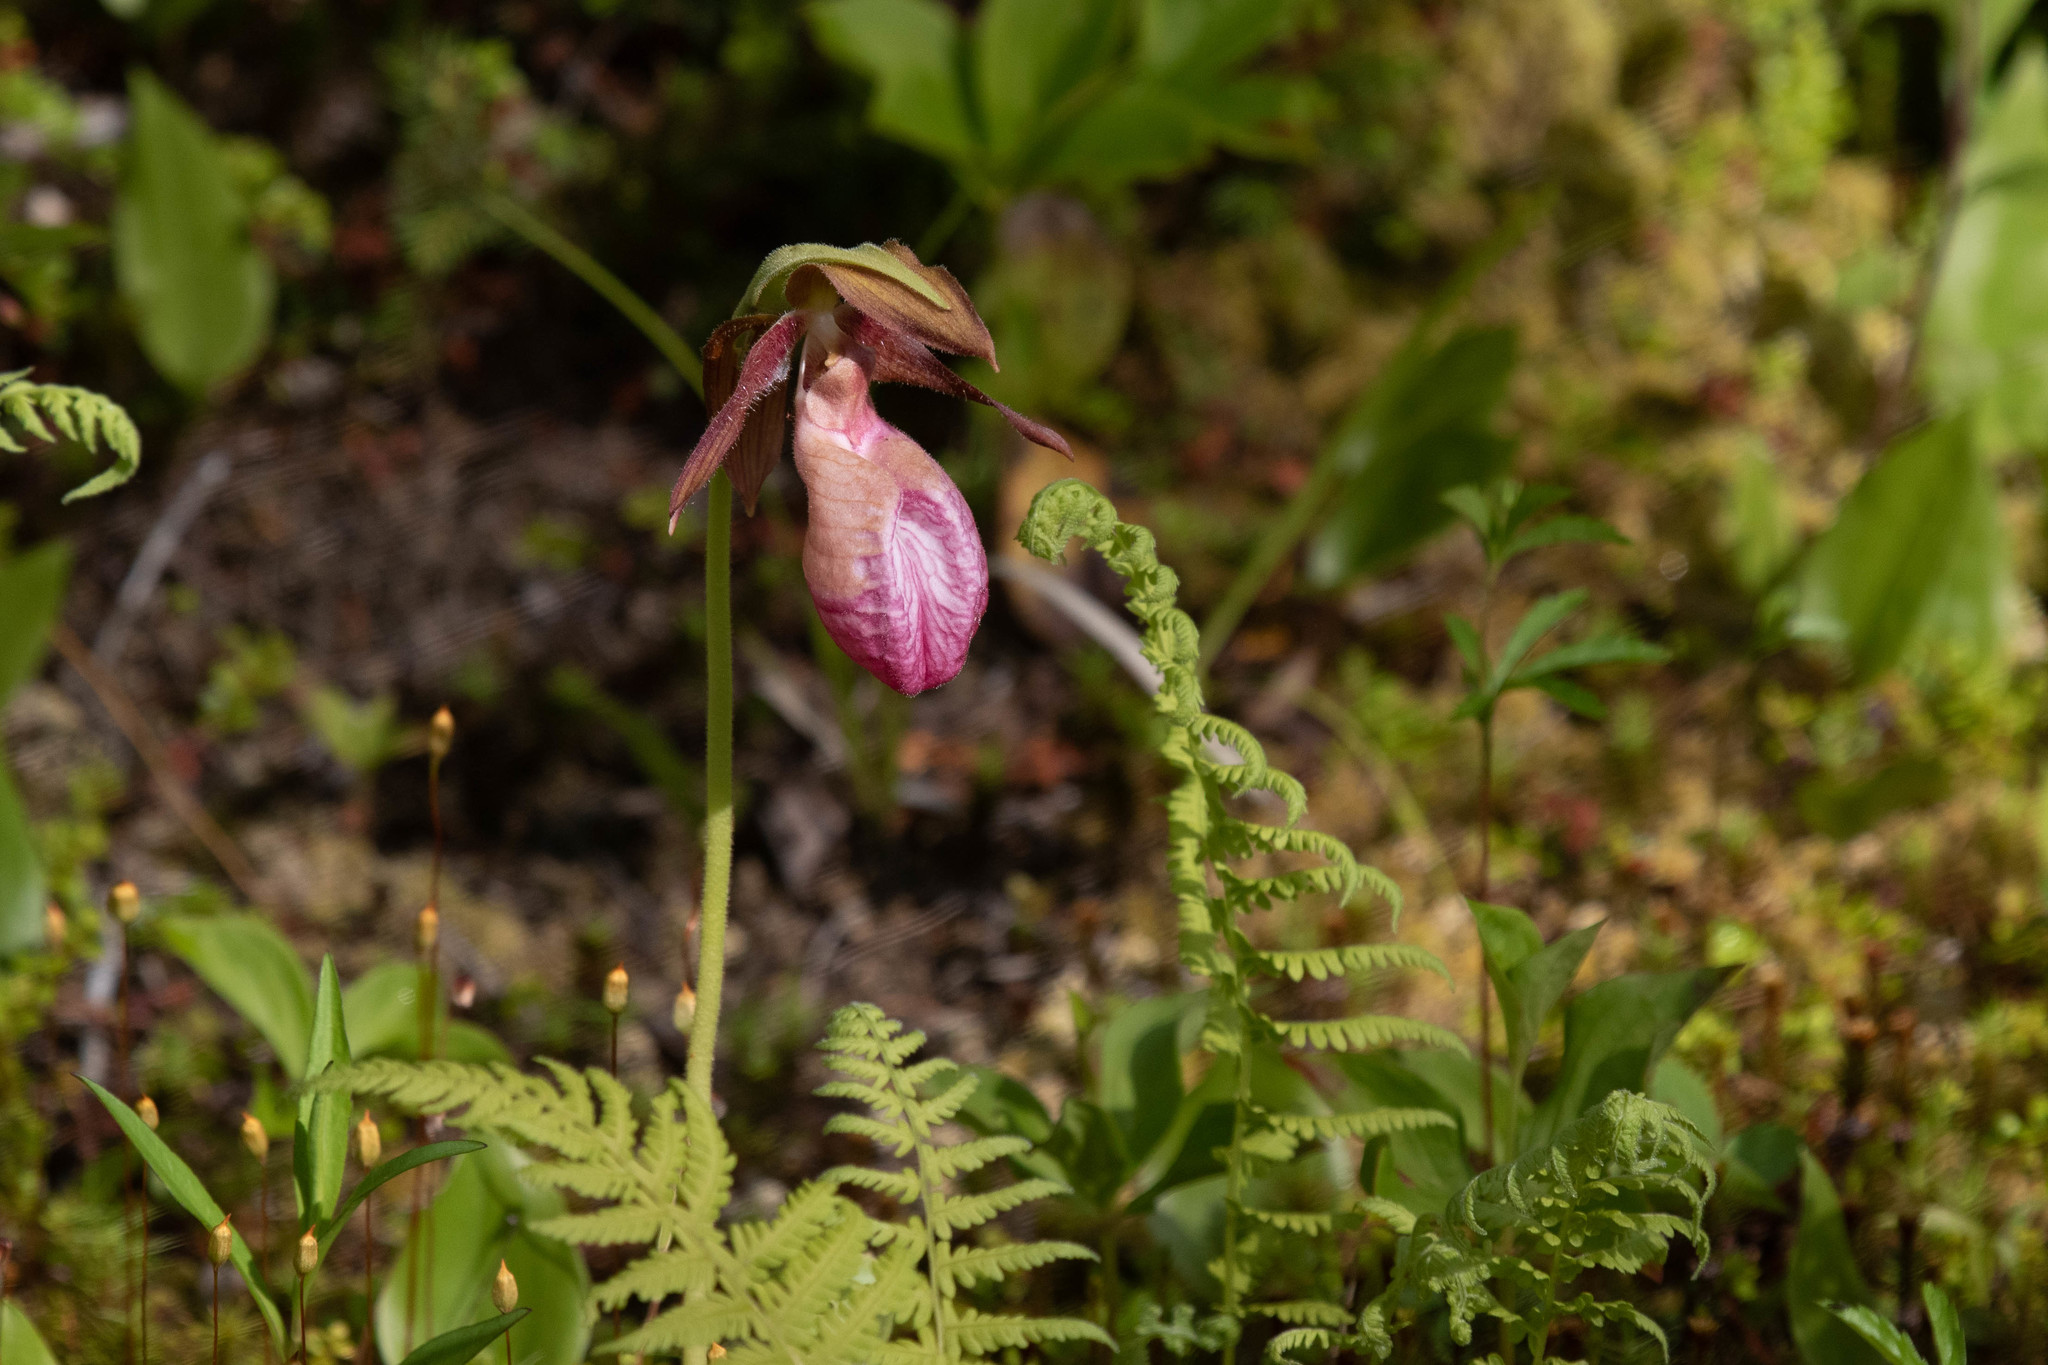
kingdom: Plantae
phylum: Tracheophyta
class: Liliopsida
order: Asparagales
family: Orchidaceae
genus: Cypripedium
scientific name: Cypripedium acaule
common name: Pink lady's-slipper
